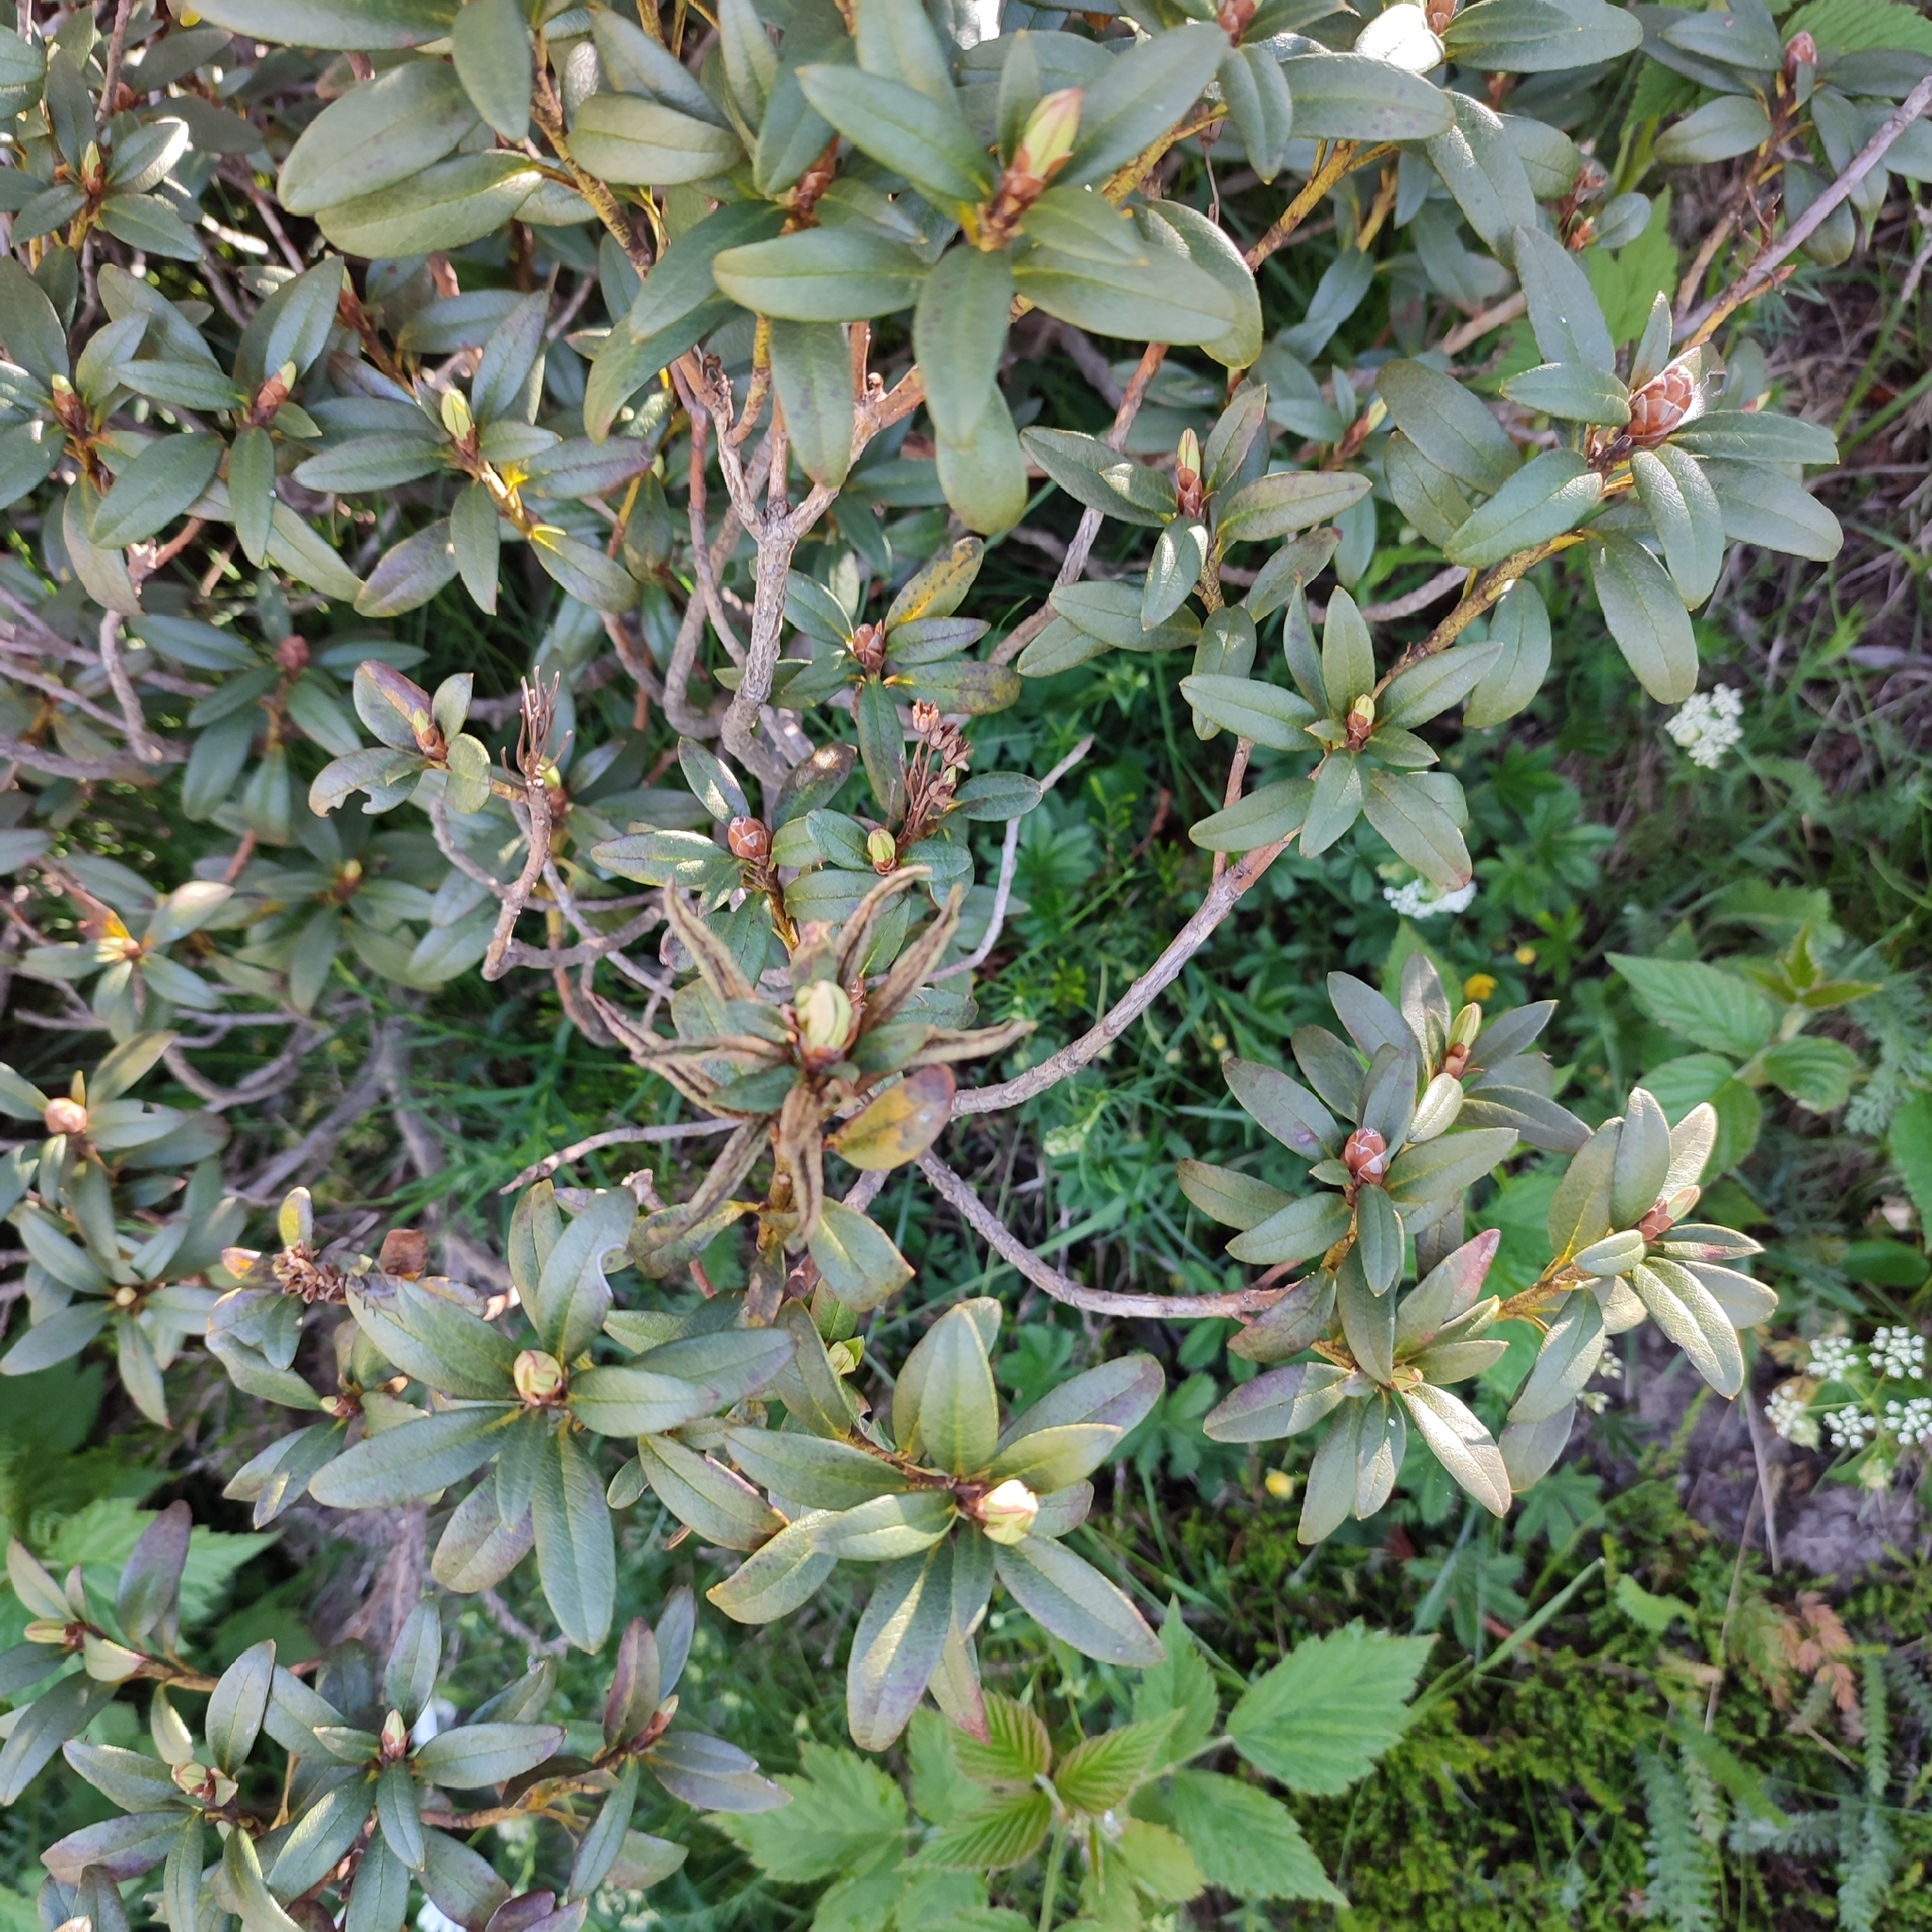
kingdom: Plantae
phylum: Tracheophyta
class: Magnoliopsida
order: Ericales
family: Ericaceae
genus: Rhododendron
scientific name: Rhododendron ferrugineum
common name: Alpenrose
